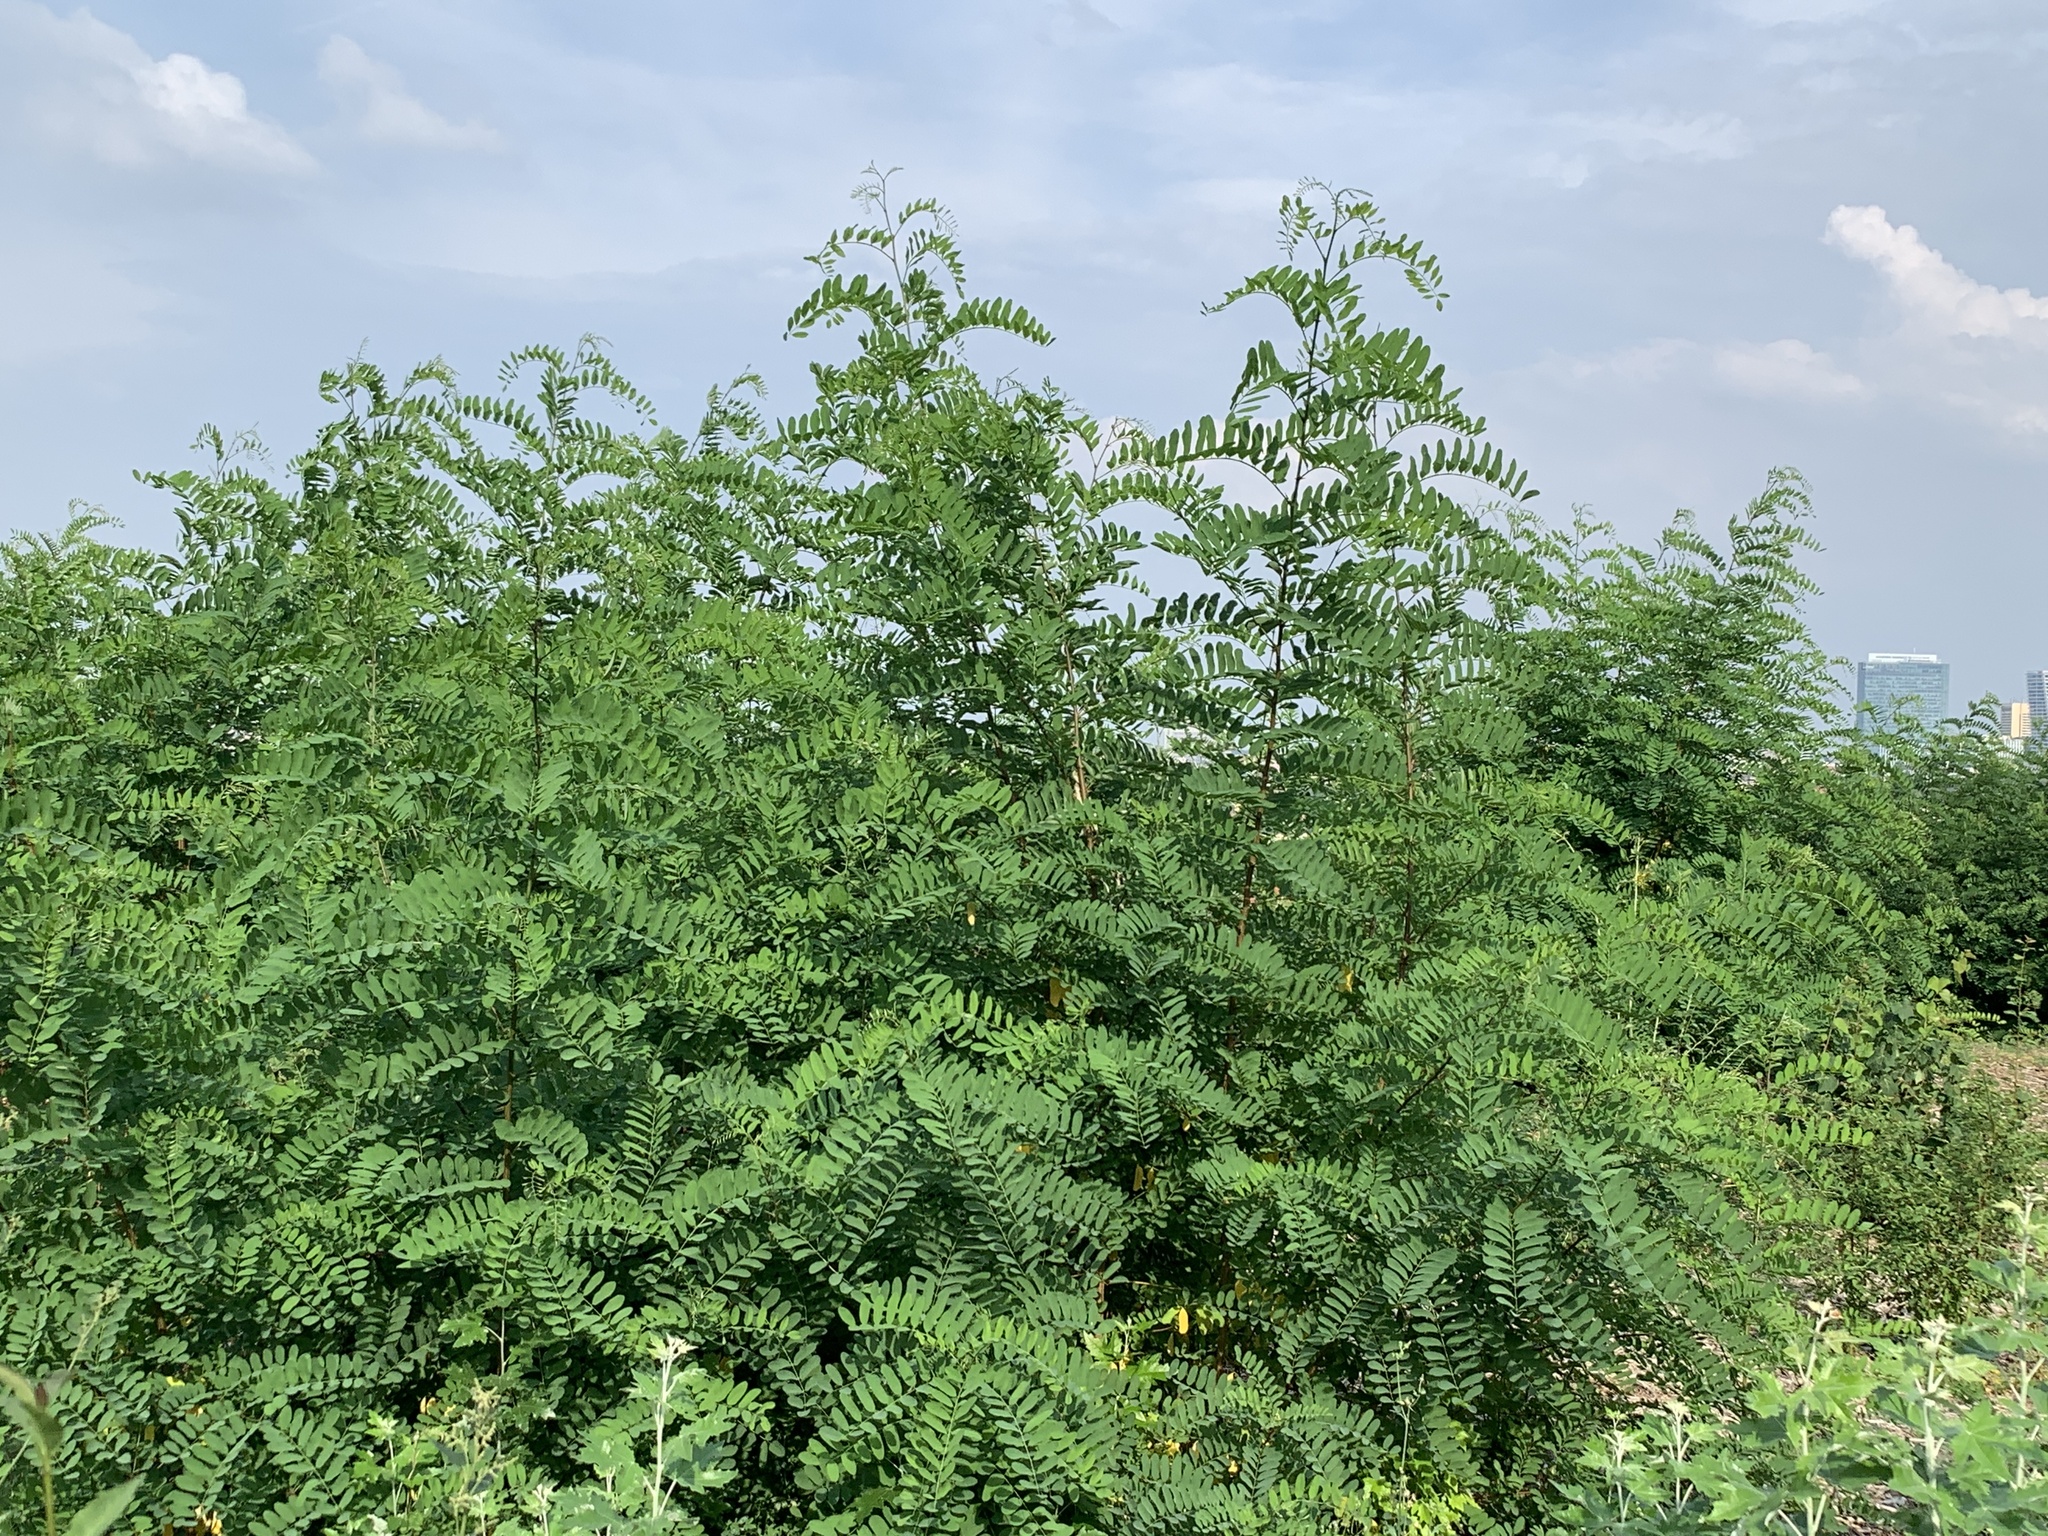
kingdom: Plantae
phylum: Tracheophyta
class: Magnoliopsida
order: Fabales
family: Fabaceae
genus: Robinia
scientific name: Robinia pseudoacacia
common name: Black locust
